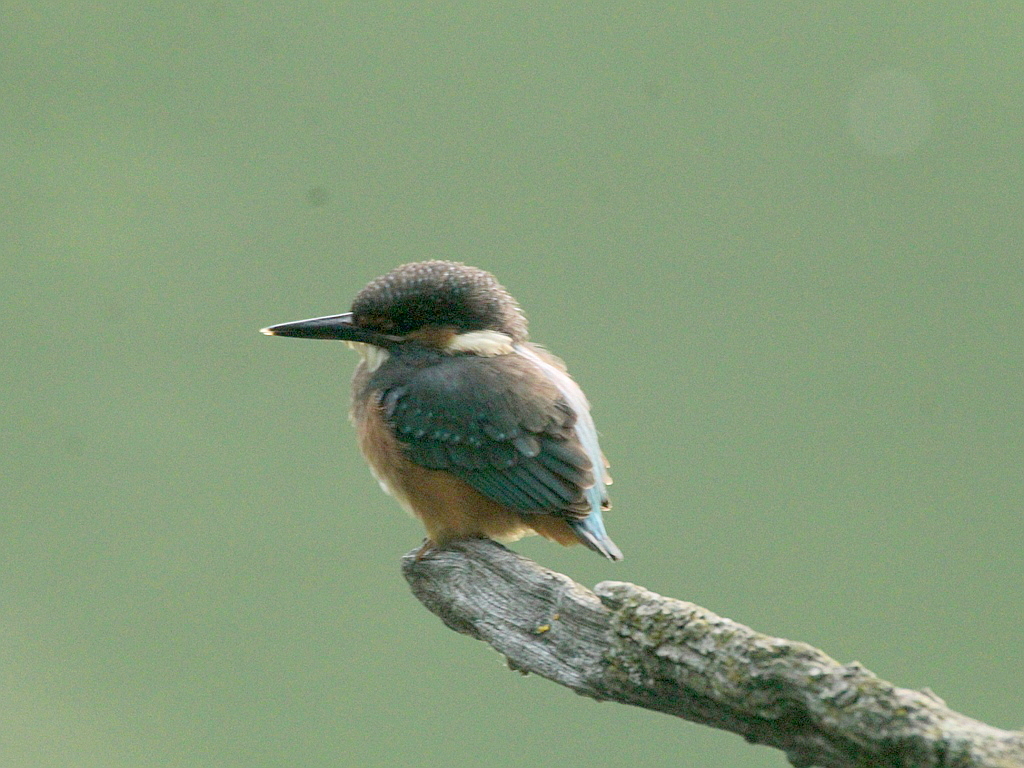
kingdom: Animalia
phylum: Chordata
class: Aves
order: Coraciiformes
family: Alcedinidae
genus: Alcedo
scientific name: Alcedo atthis
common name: Common kingfisher
